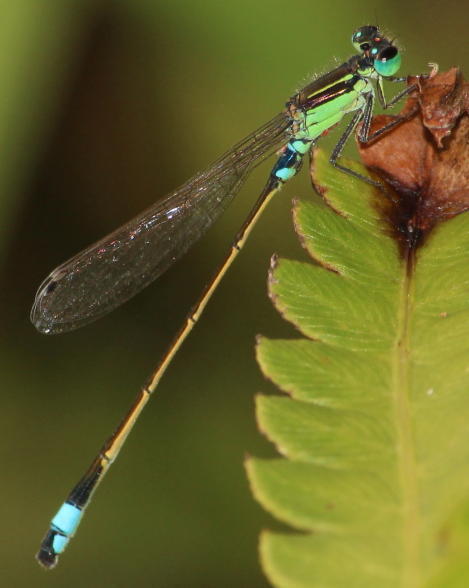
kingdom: Animalia
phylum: Arthropoda
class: Insecta
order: Odonata
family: Coenagrionidae
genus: Ischnura
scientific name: Ischnura senegalensis
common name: Tropical bluetail
